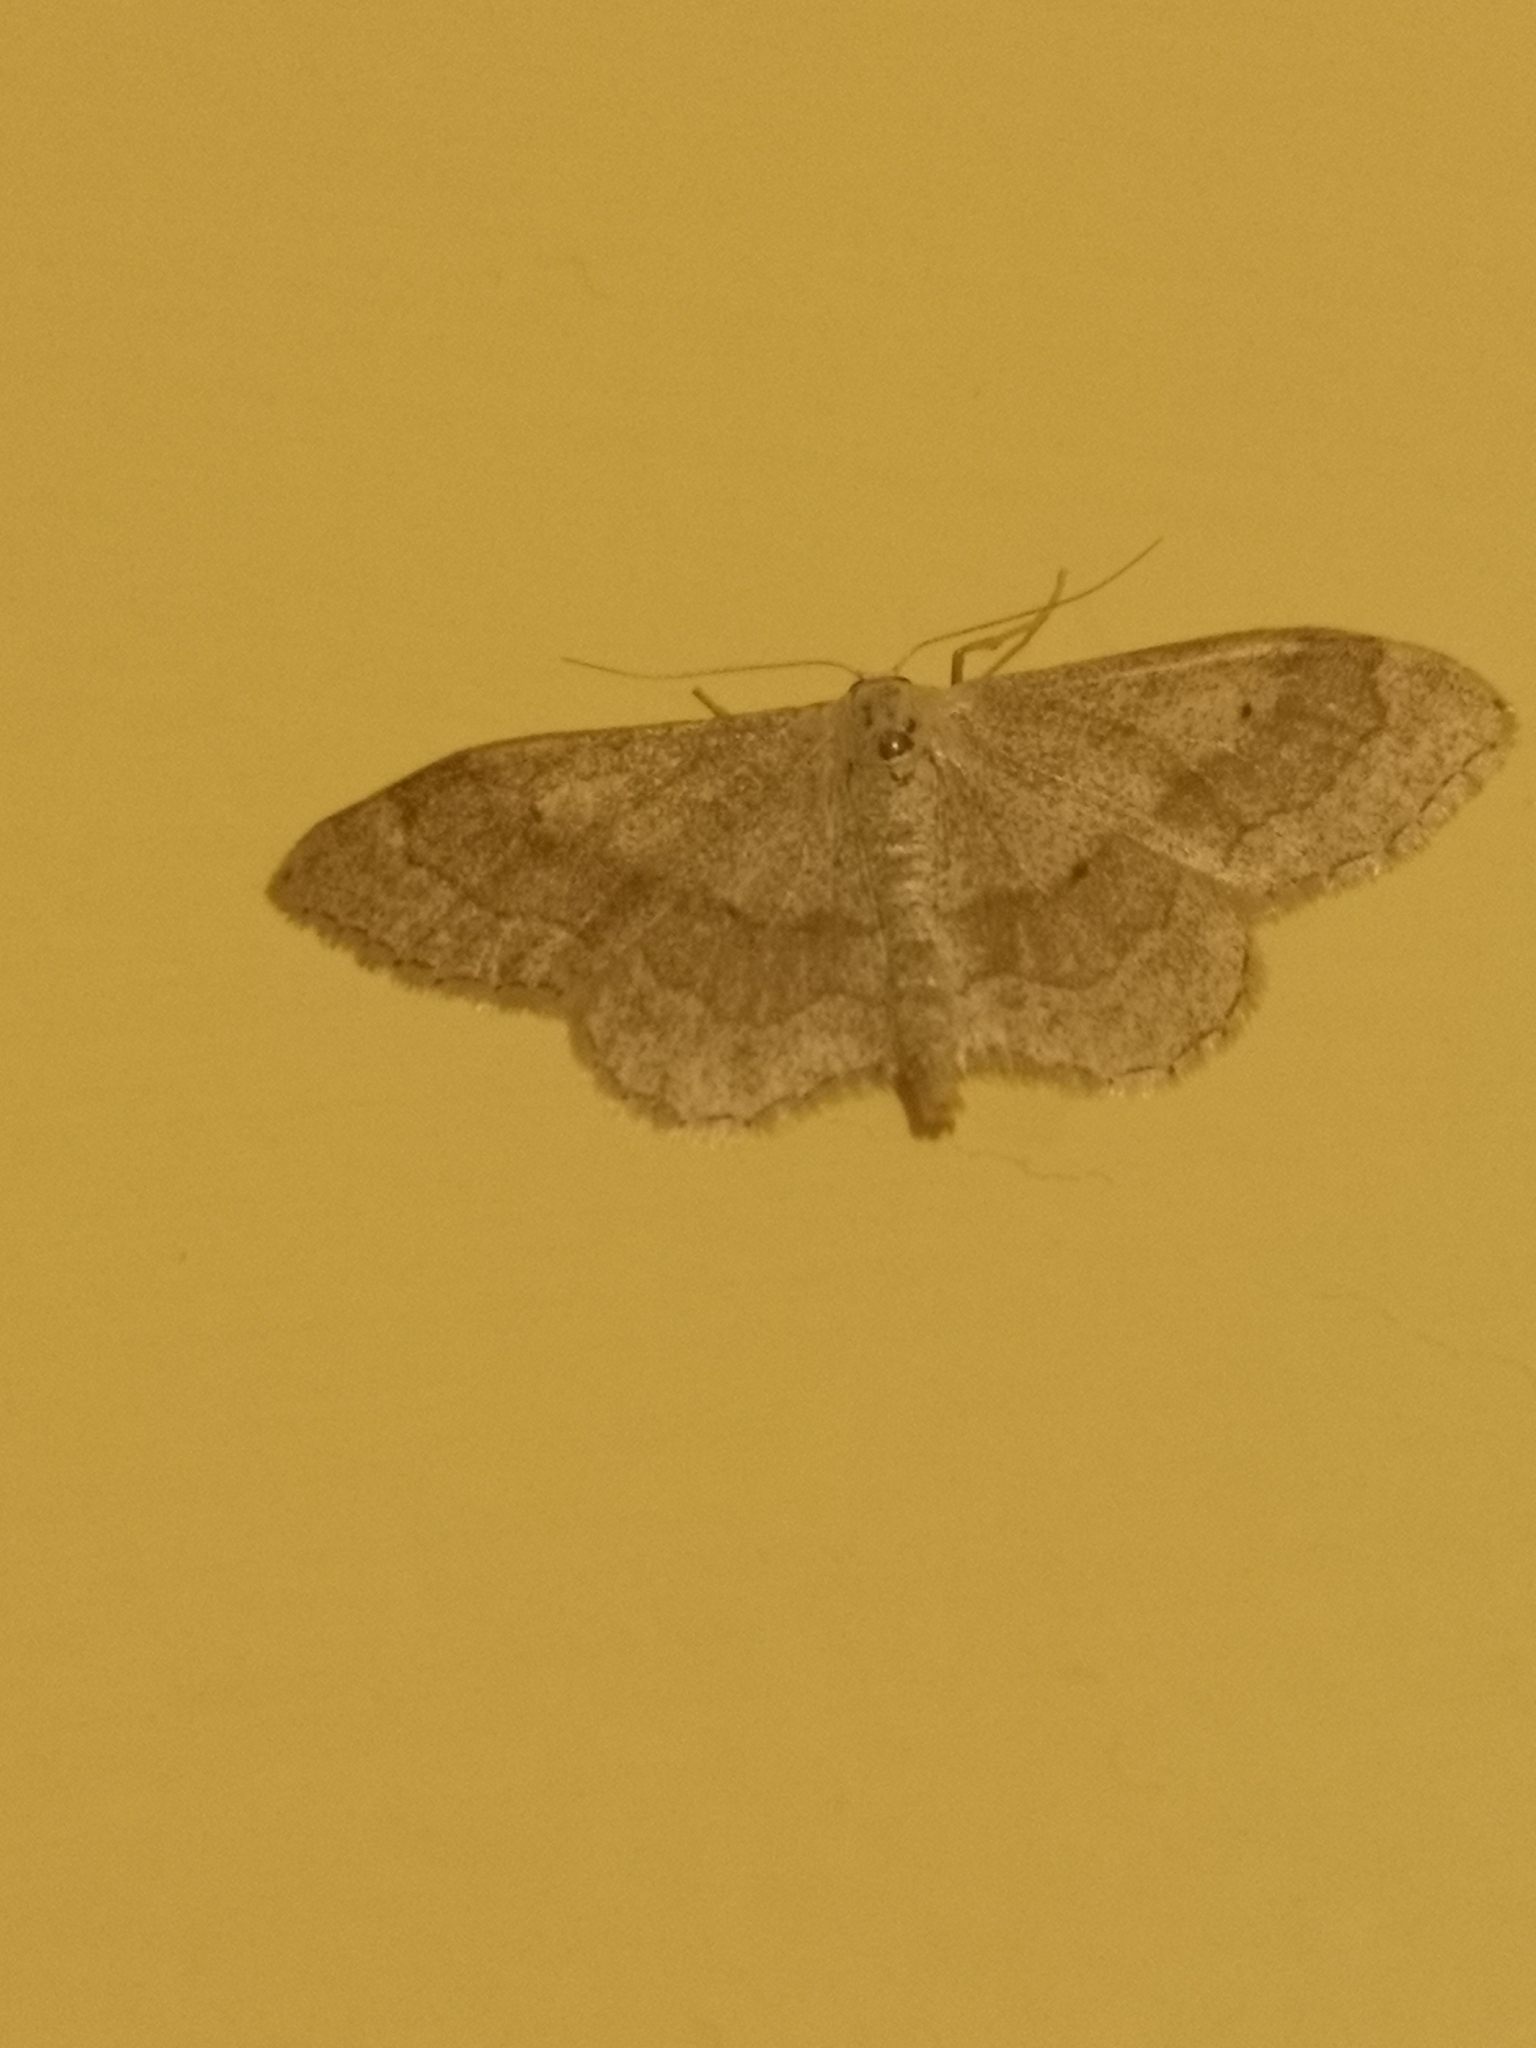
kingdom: Animalia
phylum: Arthropoda
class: Insecta
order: Lepidoptera
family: Geometridae
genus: Idaea
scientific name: Idaea aversata
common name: Riband wave
